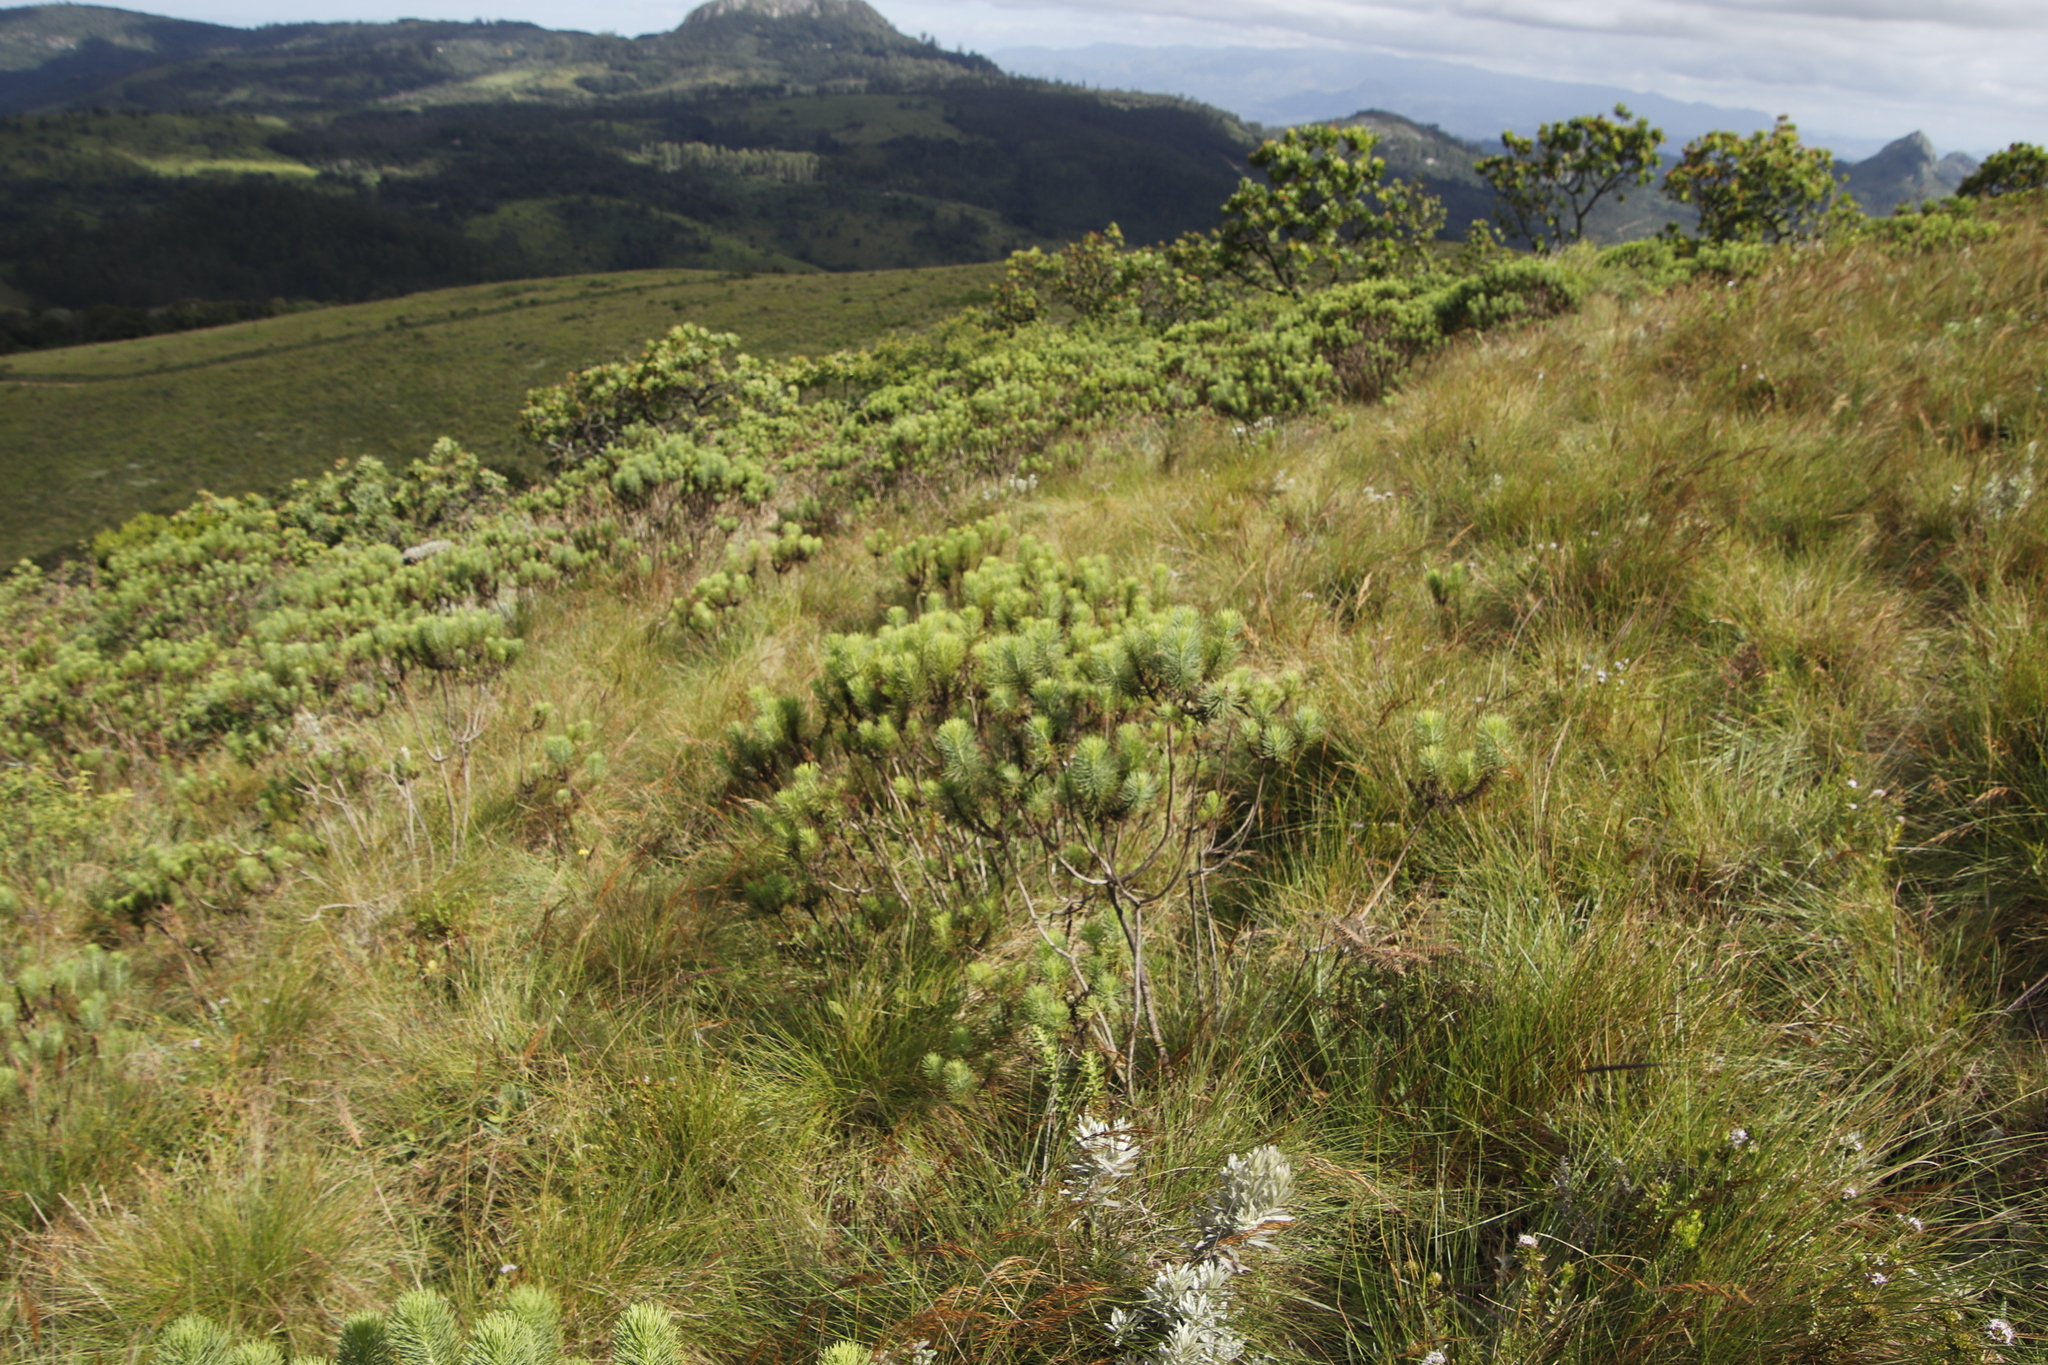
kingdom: Plantae
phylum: Tracheophyta
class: Magnoliopsida
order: Asterales
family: Asteraceae
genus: Phymaspermum
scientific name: Phymaspermum athanasioides
